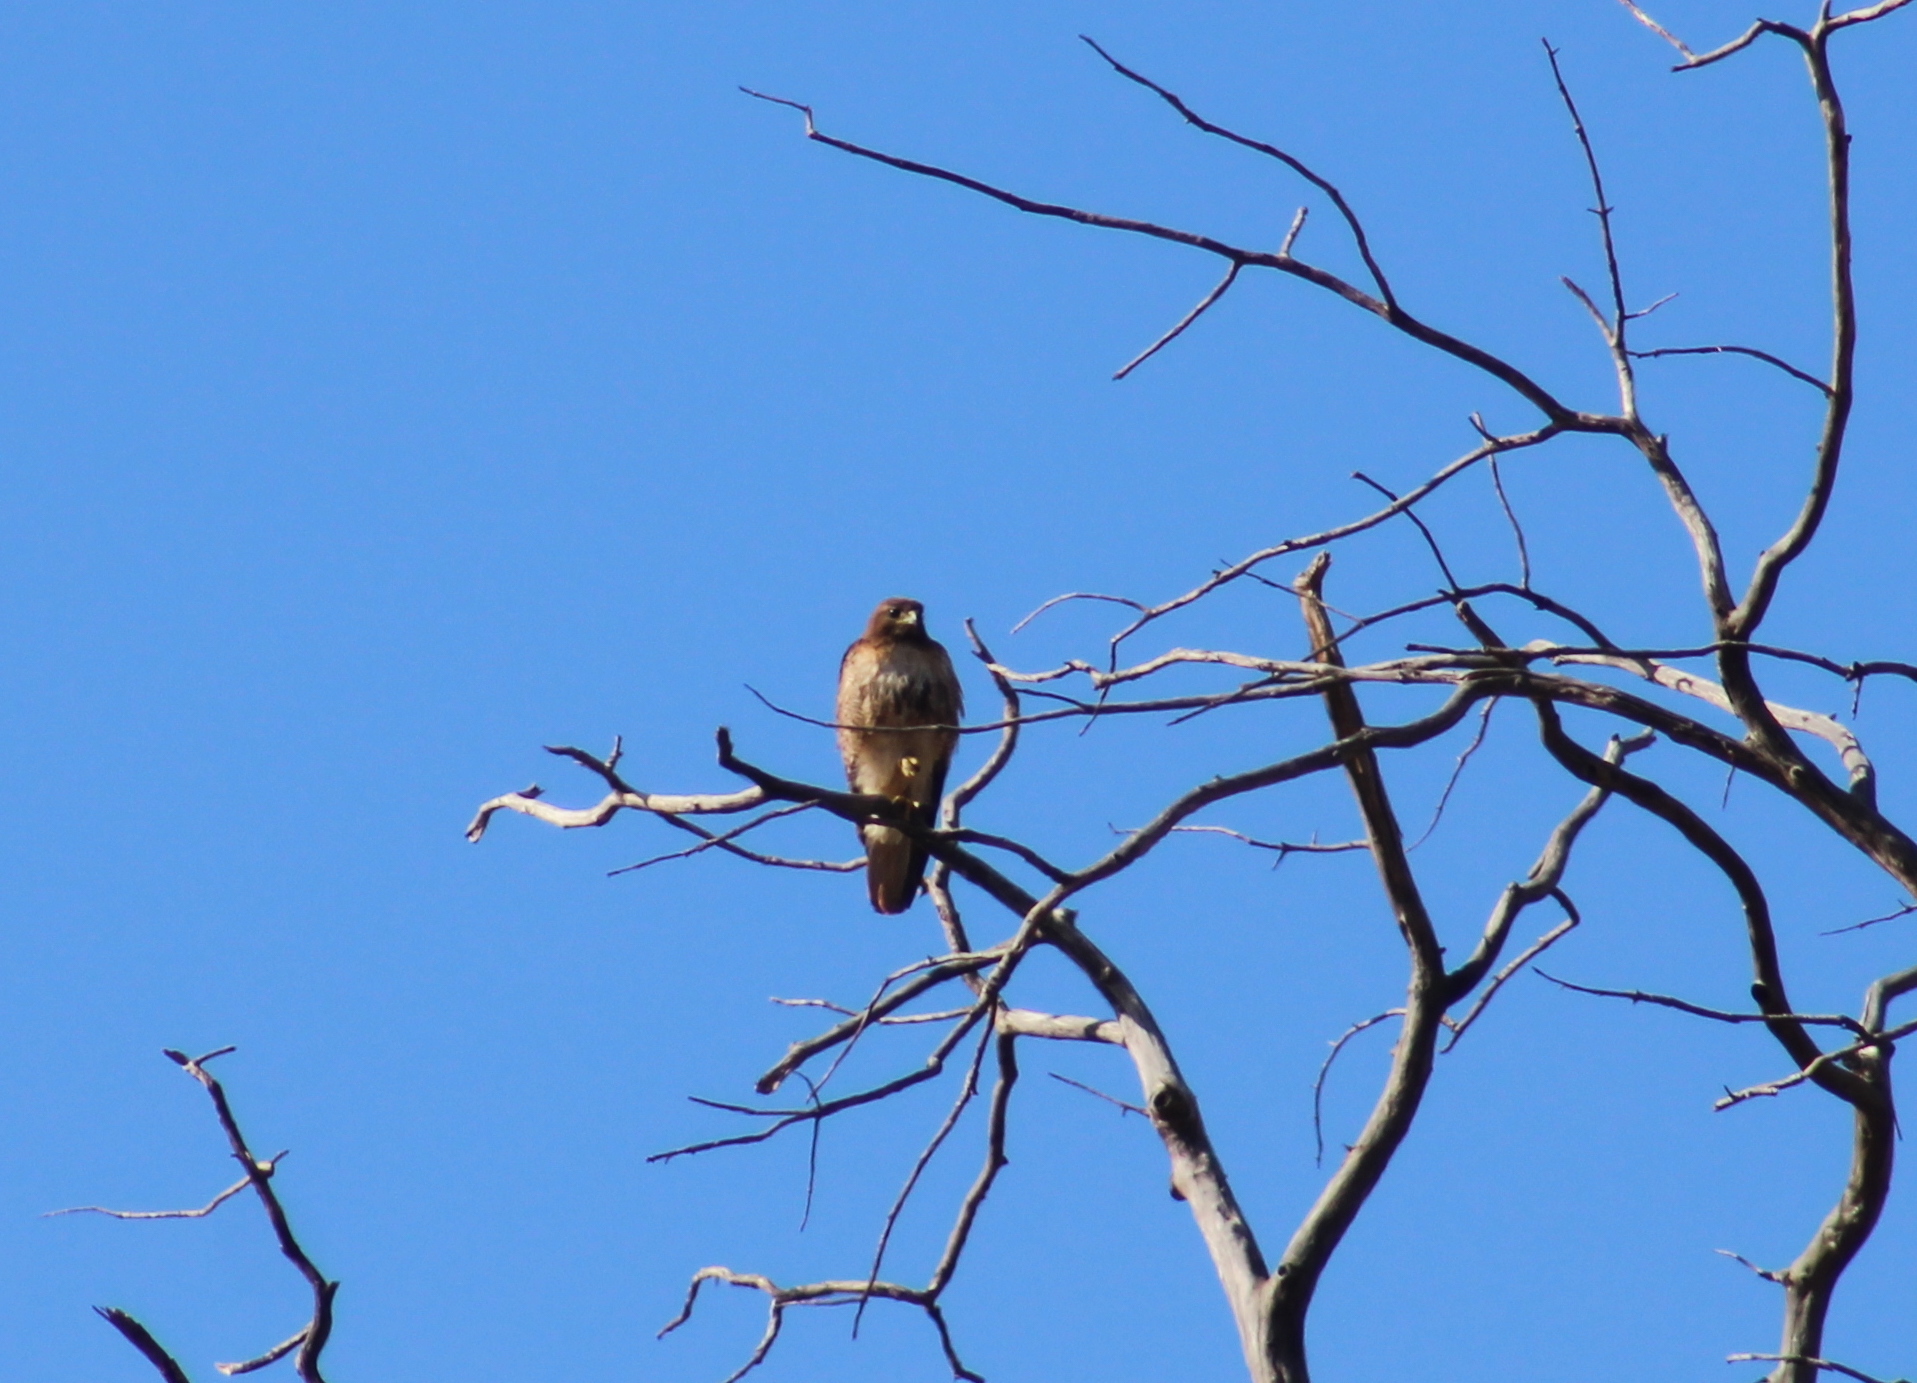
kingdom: Animalia
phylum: Chordata
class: Aves
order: Accipitriformes
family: Accipitridae
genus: Buteo
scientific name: Buteo jamaicensis
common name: Red-tailed hawk
